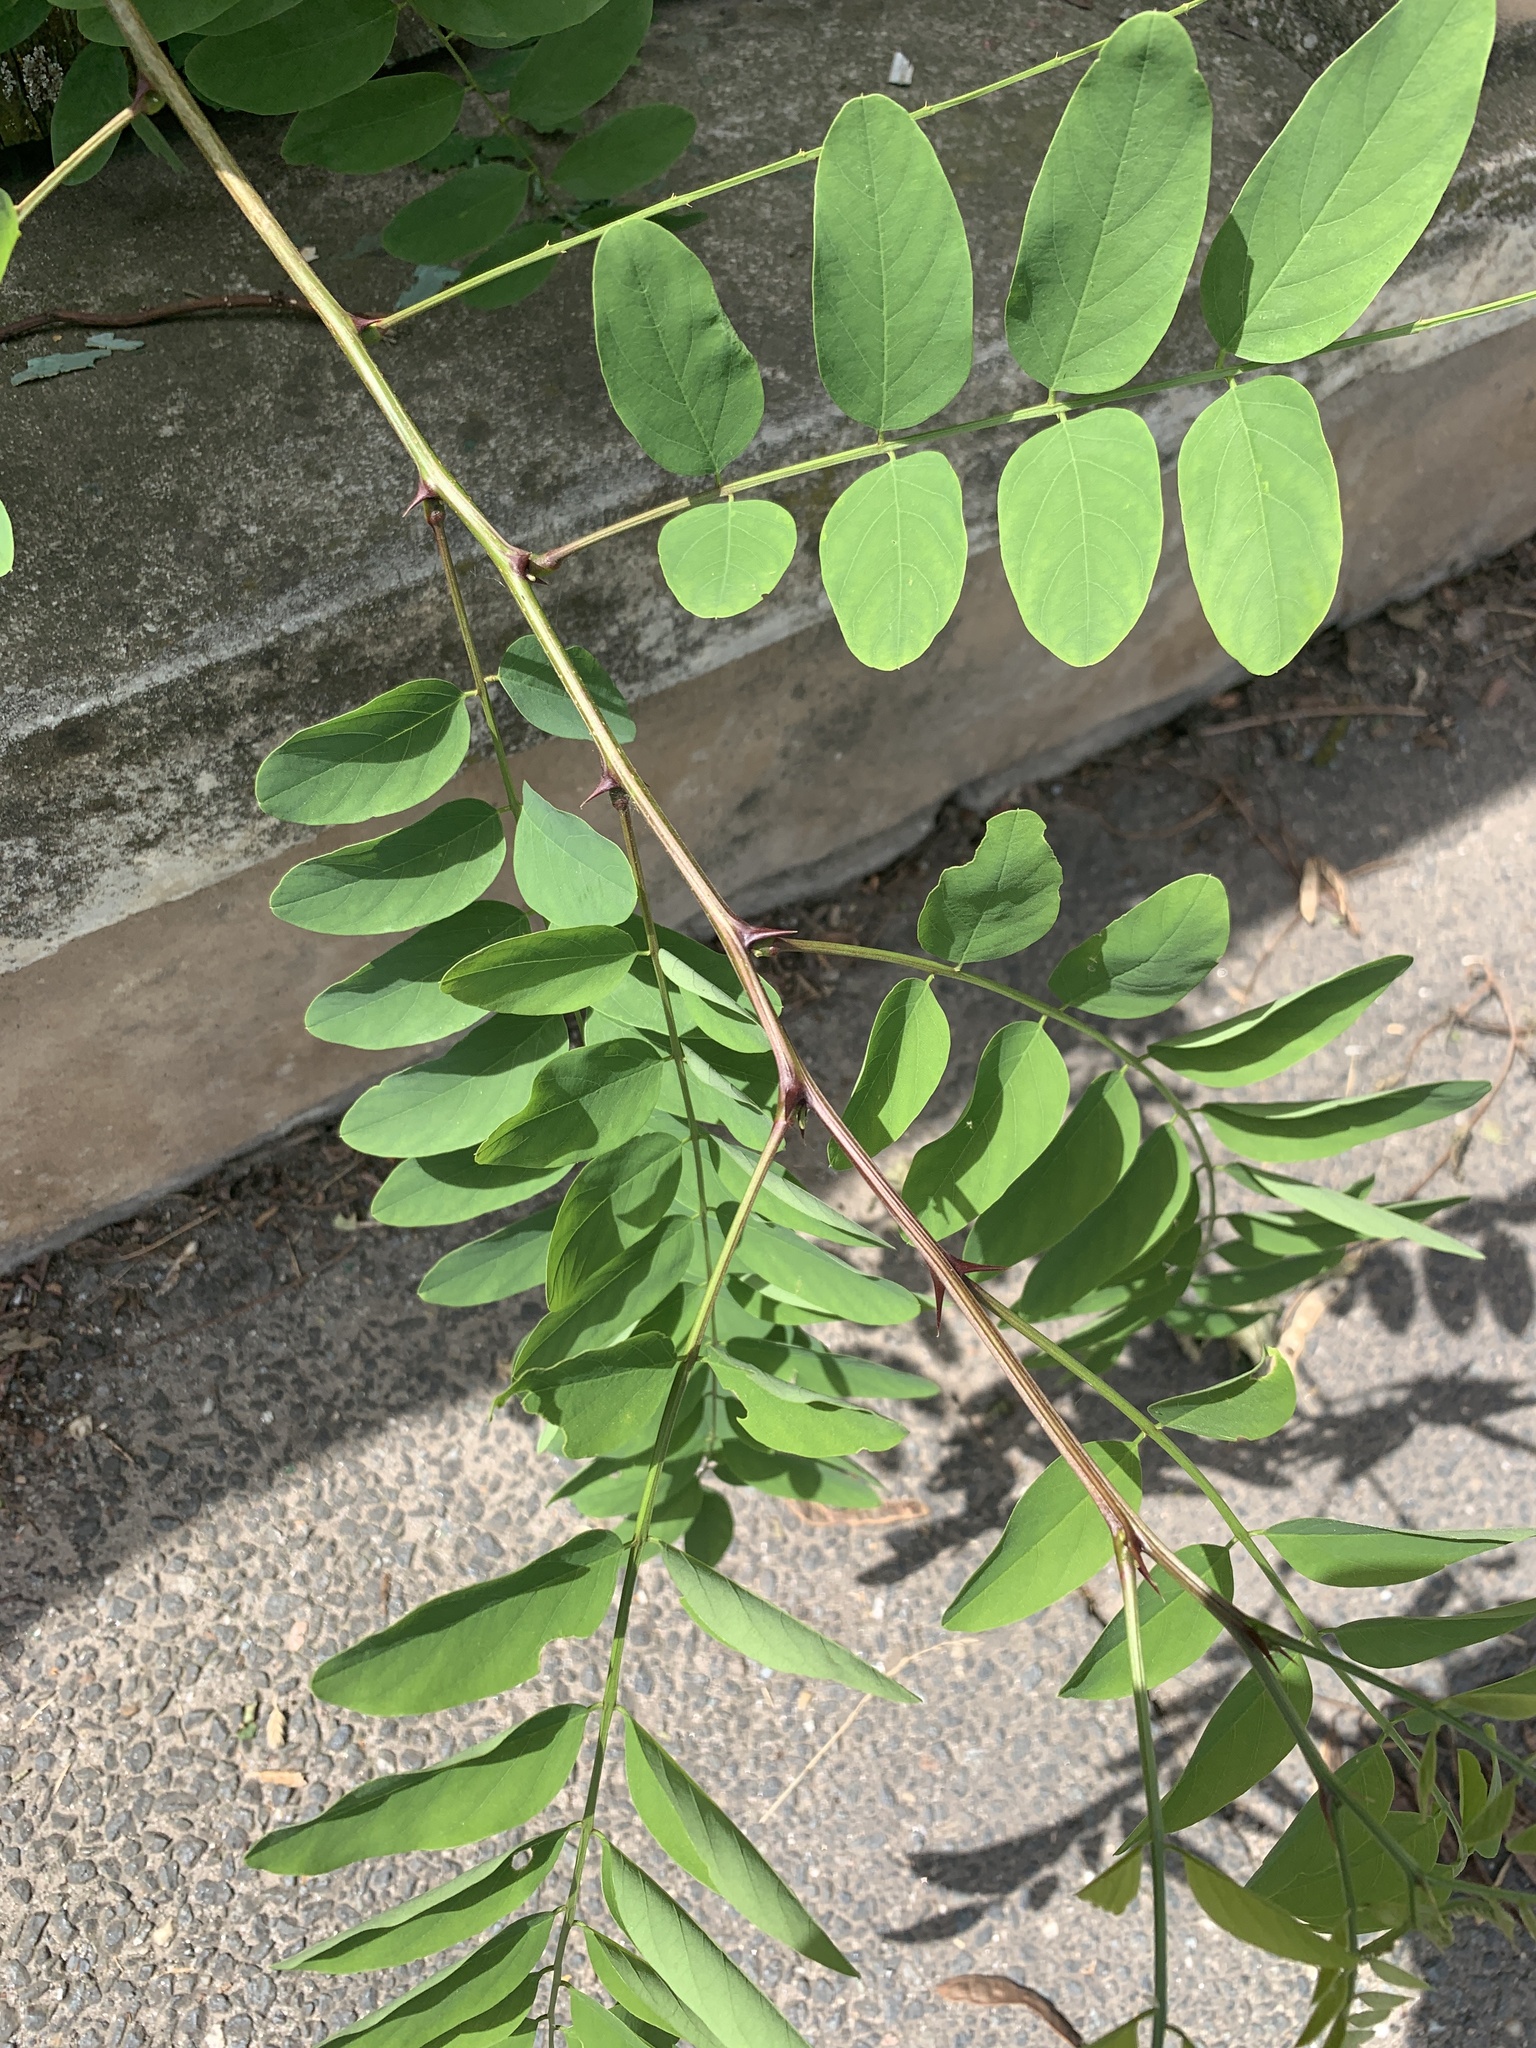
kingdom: Plantae
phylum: Tracheophyta
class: Magnoliopsida
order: Fabales
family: Fabaceae
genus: Robinia
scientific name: Robinia pseudoacacia
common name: Black locust
